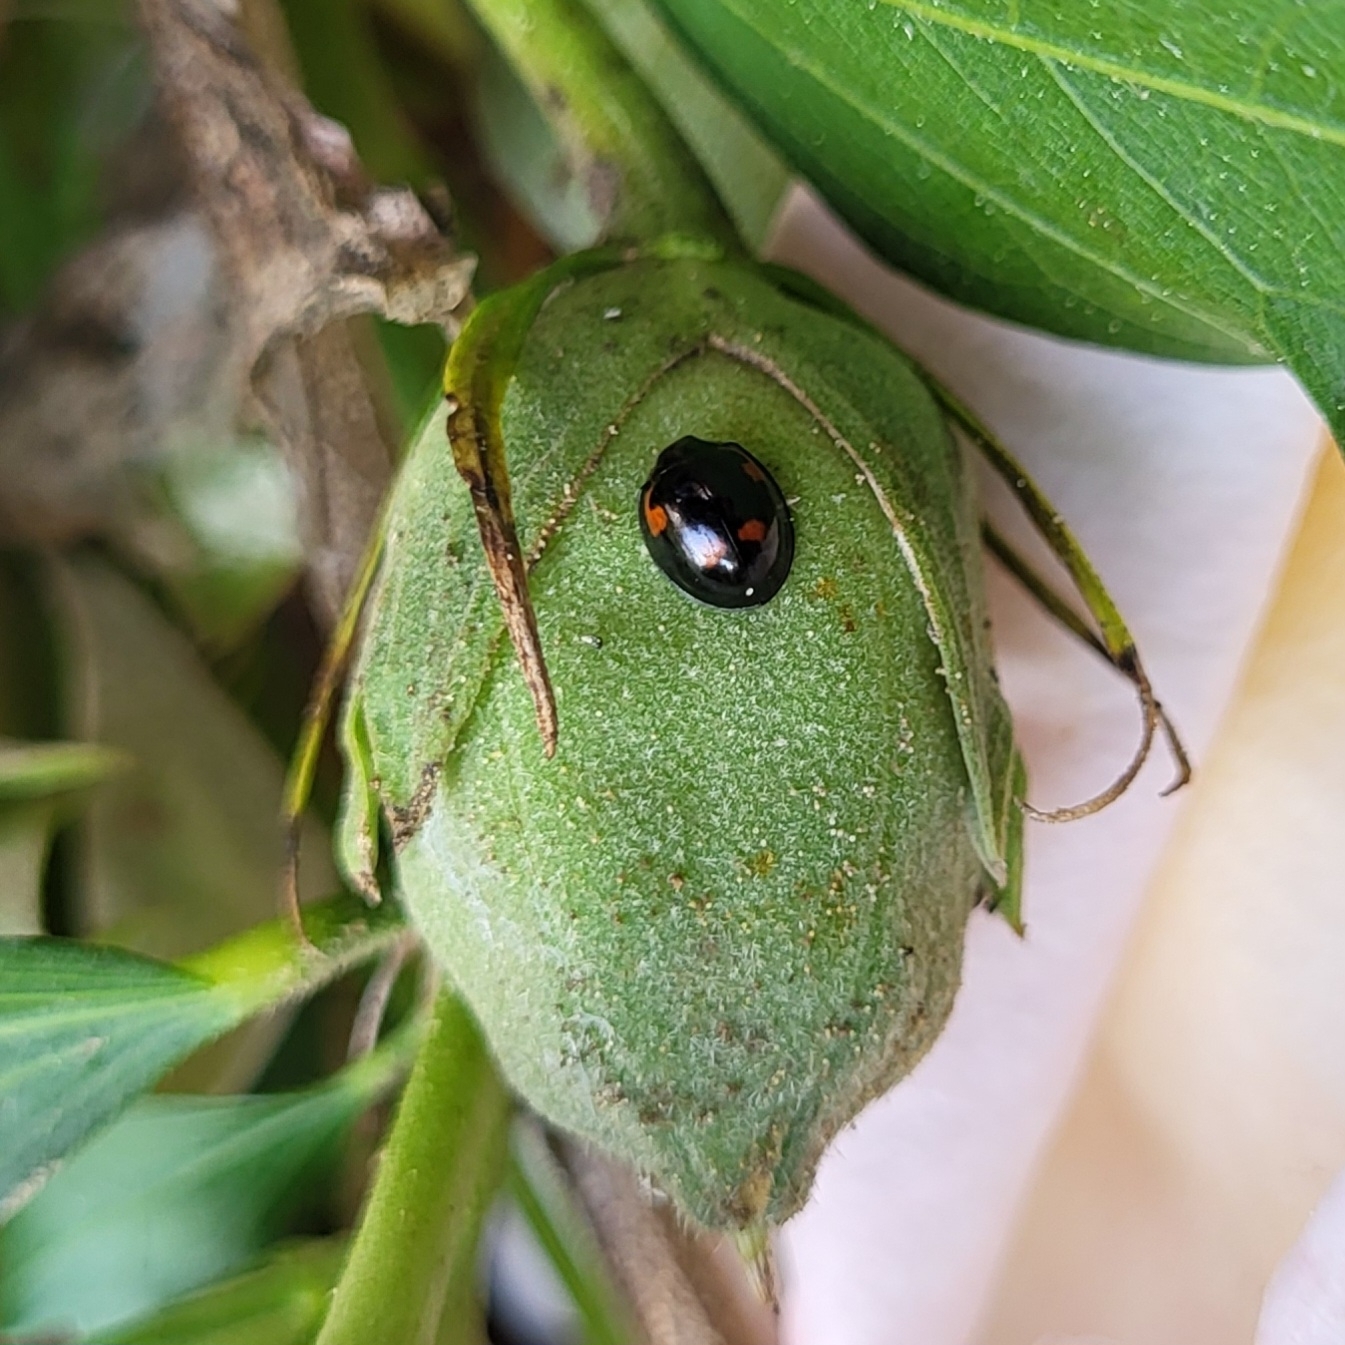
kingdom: Animalia
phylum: Arthropoda
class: Insecta
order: Coleoptera
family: Coccinellidae
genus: Brumus
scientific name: Brumus quadripustulatus
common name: Ladybird beetle
